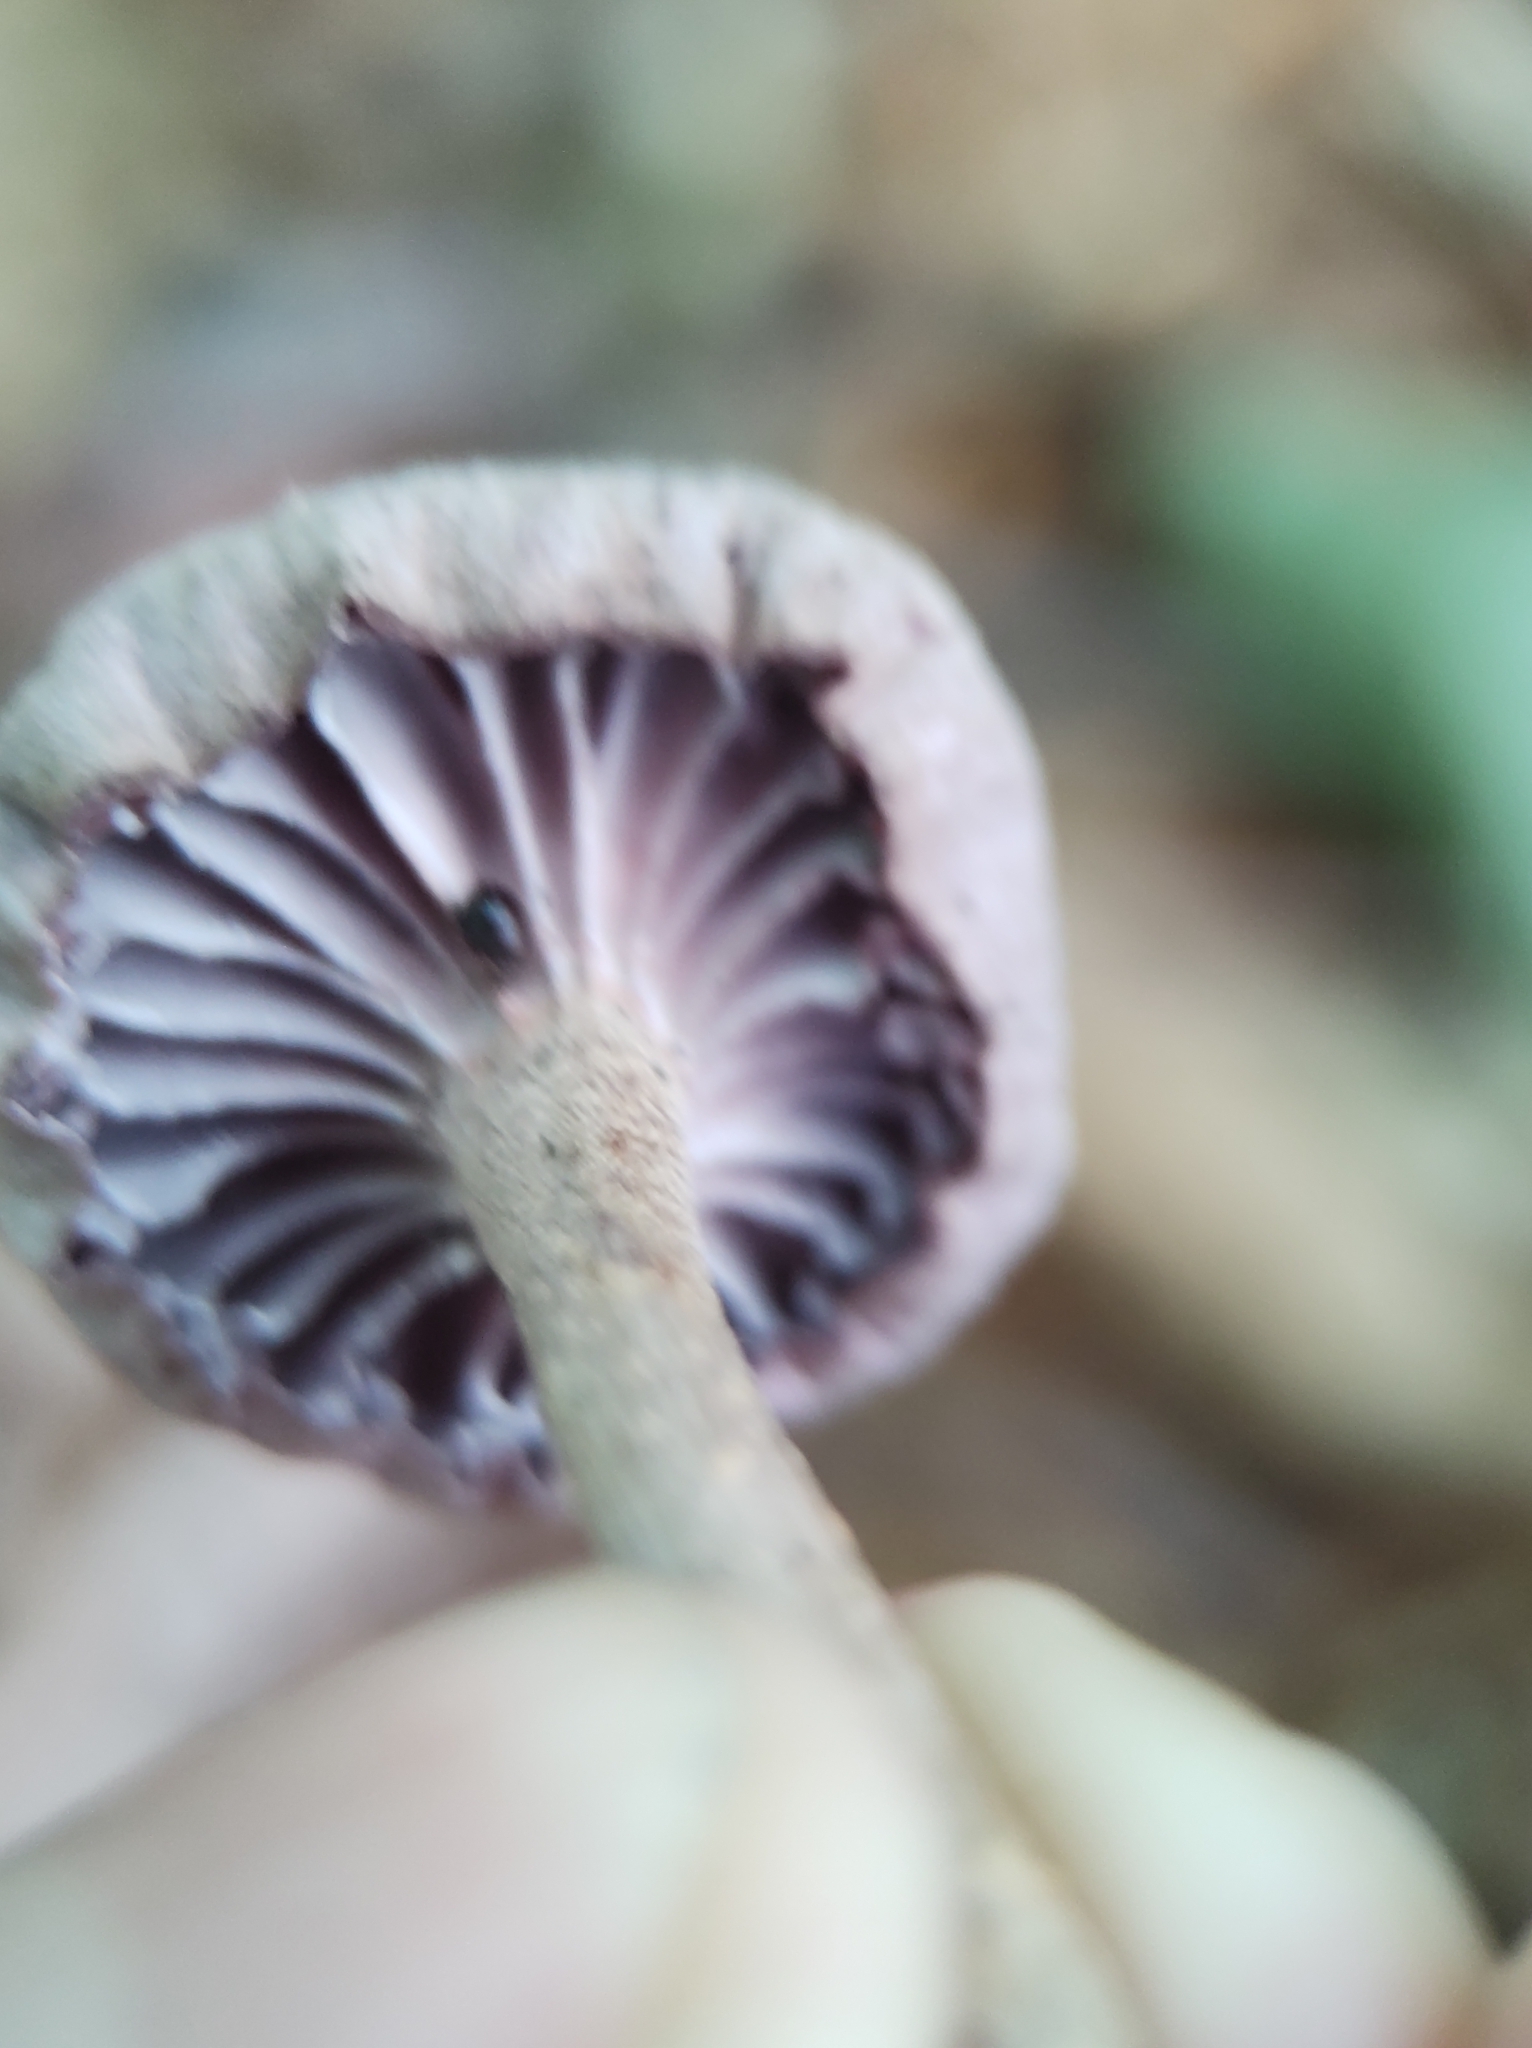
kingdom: Fungi
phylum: Basidiomycota
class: Agaricomycetes
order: Agaricales
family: Hydnangiaceae
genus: Laccaria
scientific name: Laccaria amethystina
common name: Amethyst deceiver
